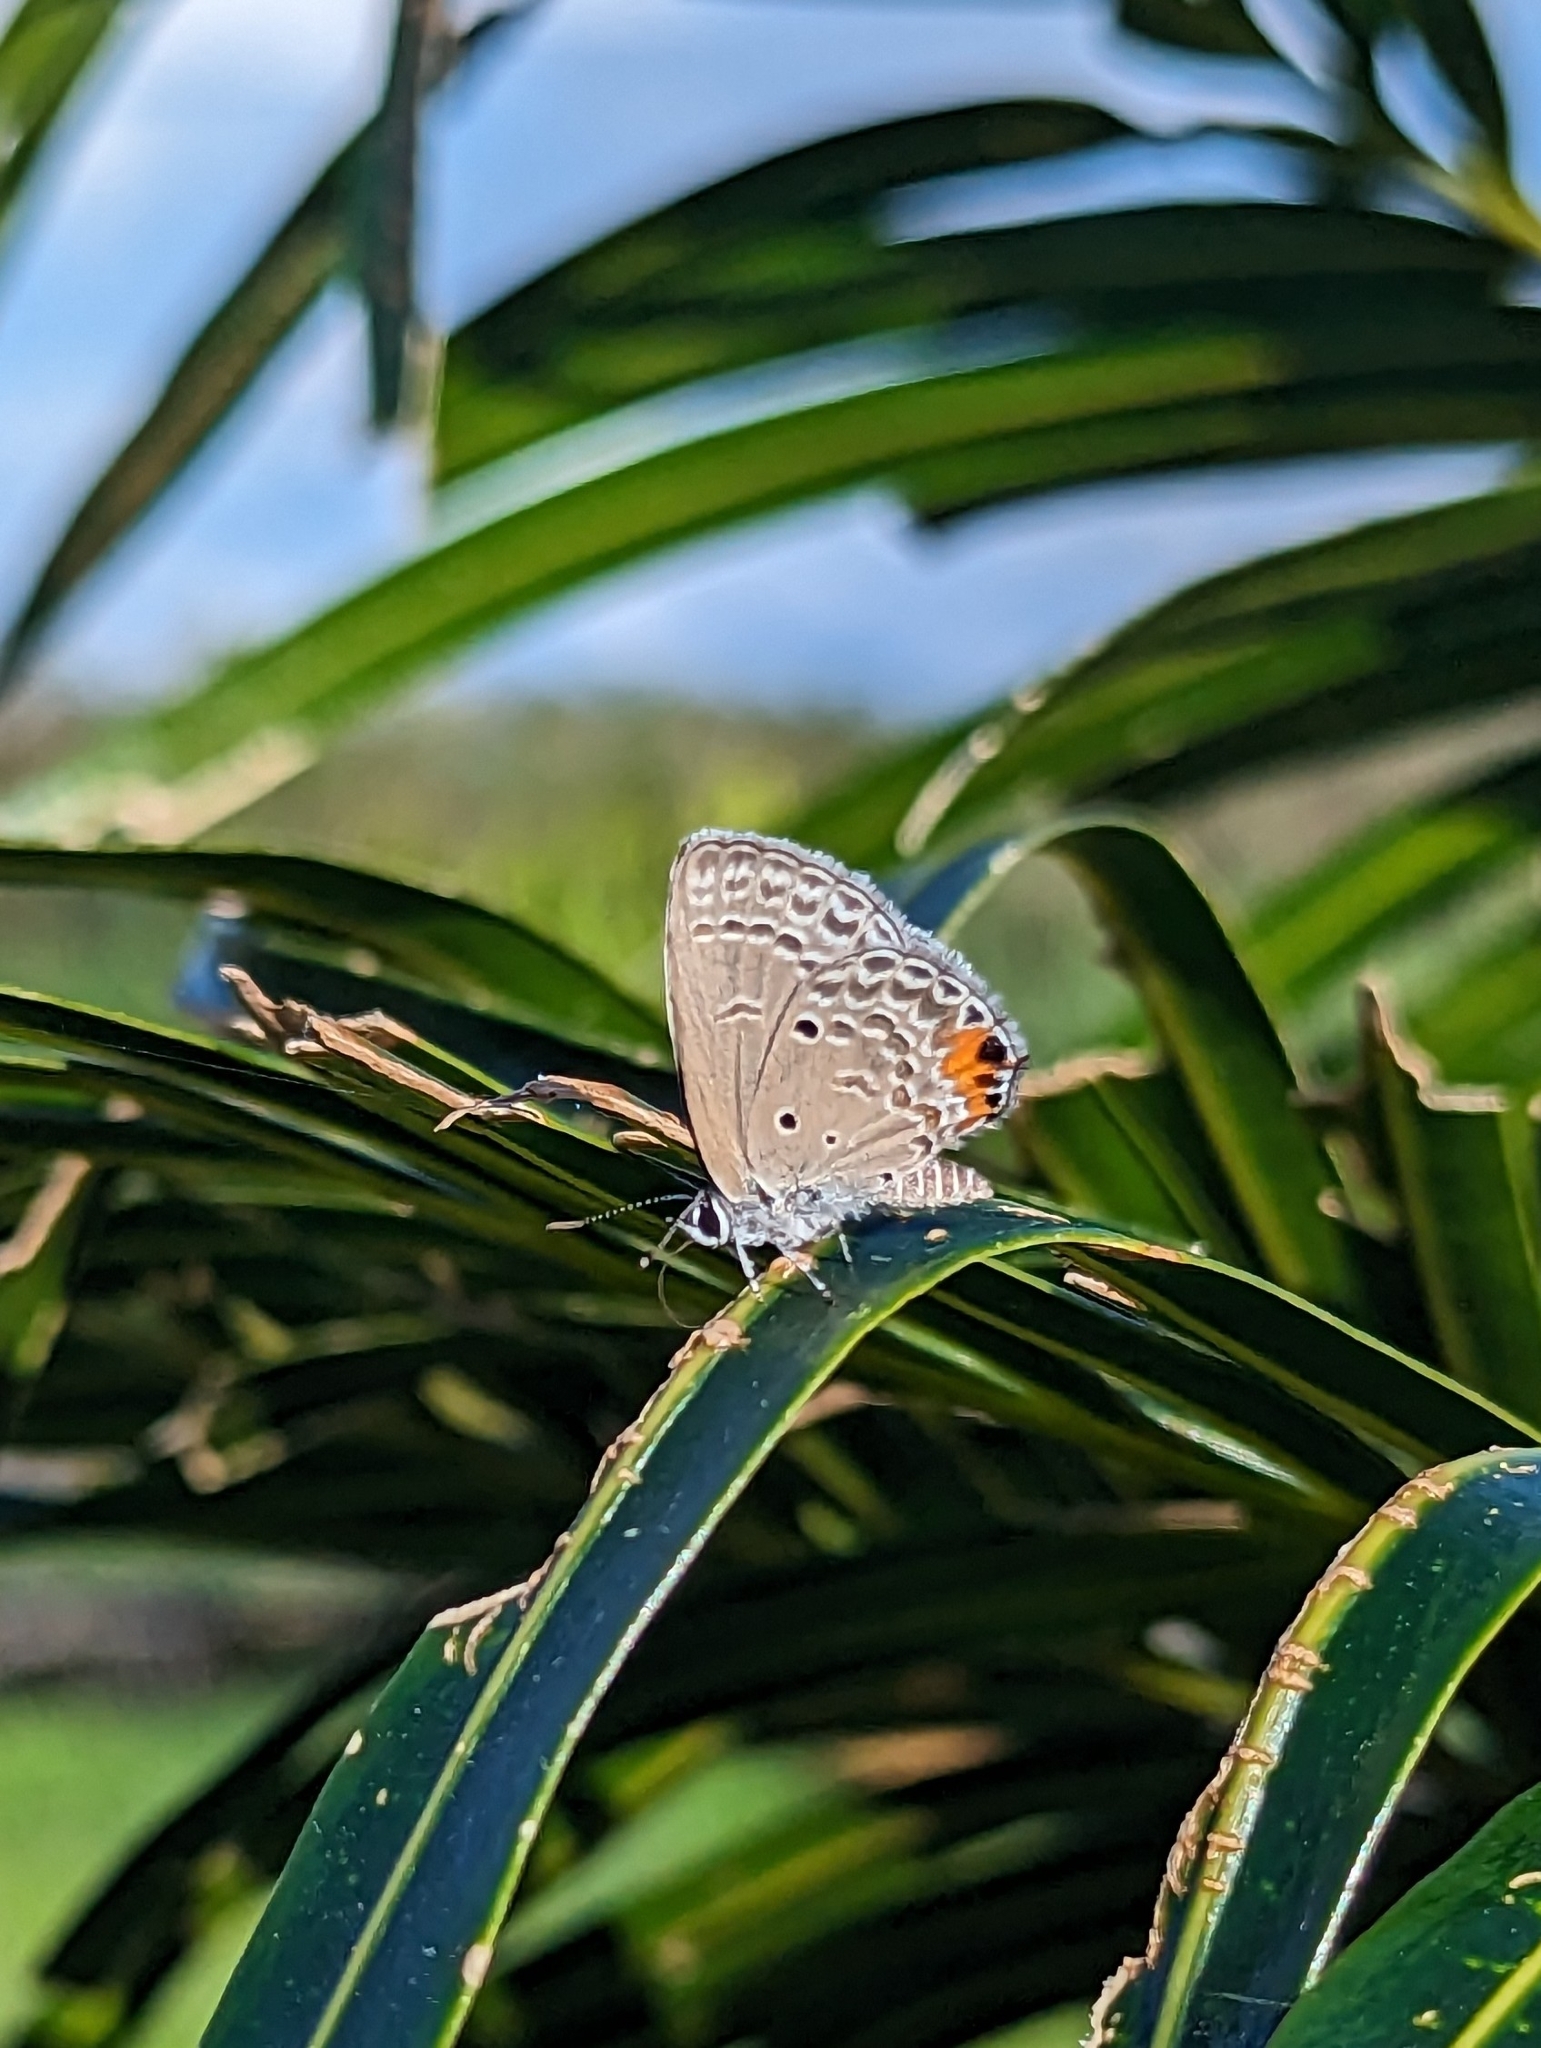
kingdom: Animalia
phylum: Arthropoda
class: Insecta
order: Lepidoptera
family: Lycaenidae
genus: Luthrodes
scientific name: Luthrodes pandava
